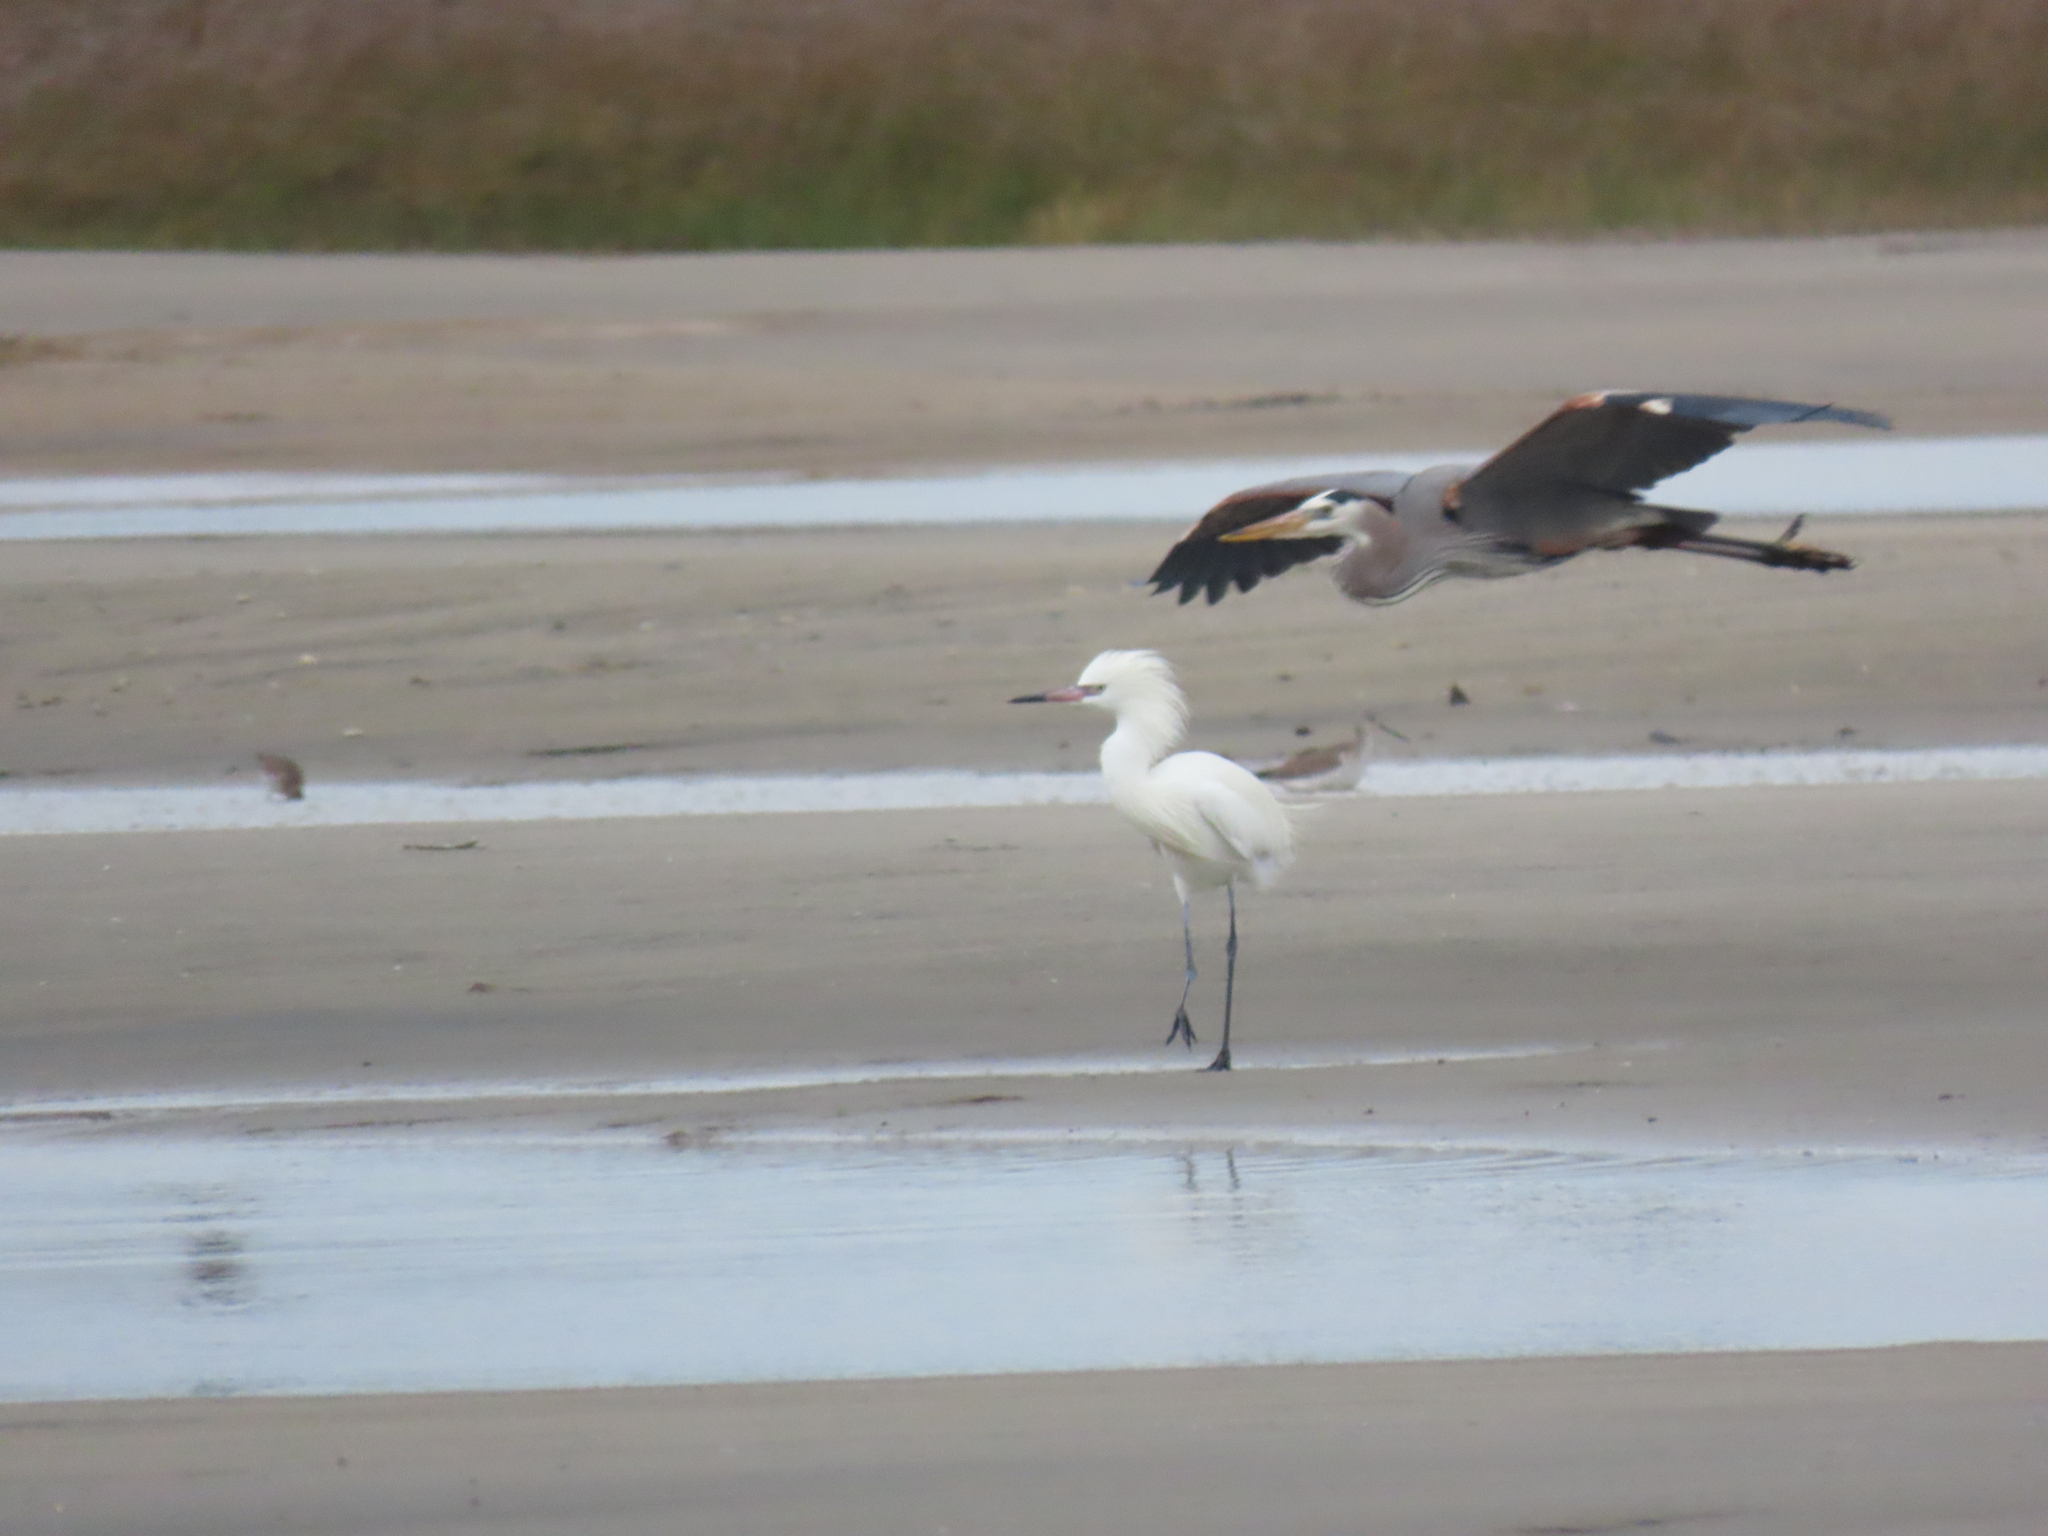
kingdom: Animalia
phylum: Chordata
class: Aves
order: Pelecaniformes
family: Ardeidae
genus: Egretta
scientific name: Egretta rufescens
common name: Reddish egret
